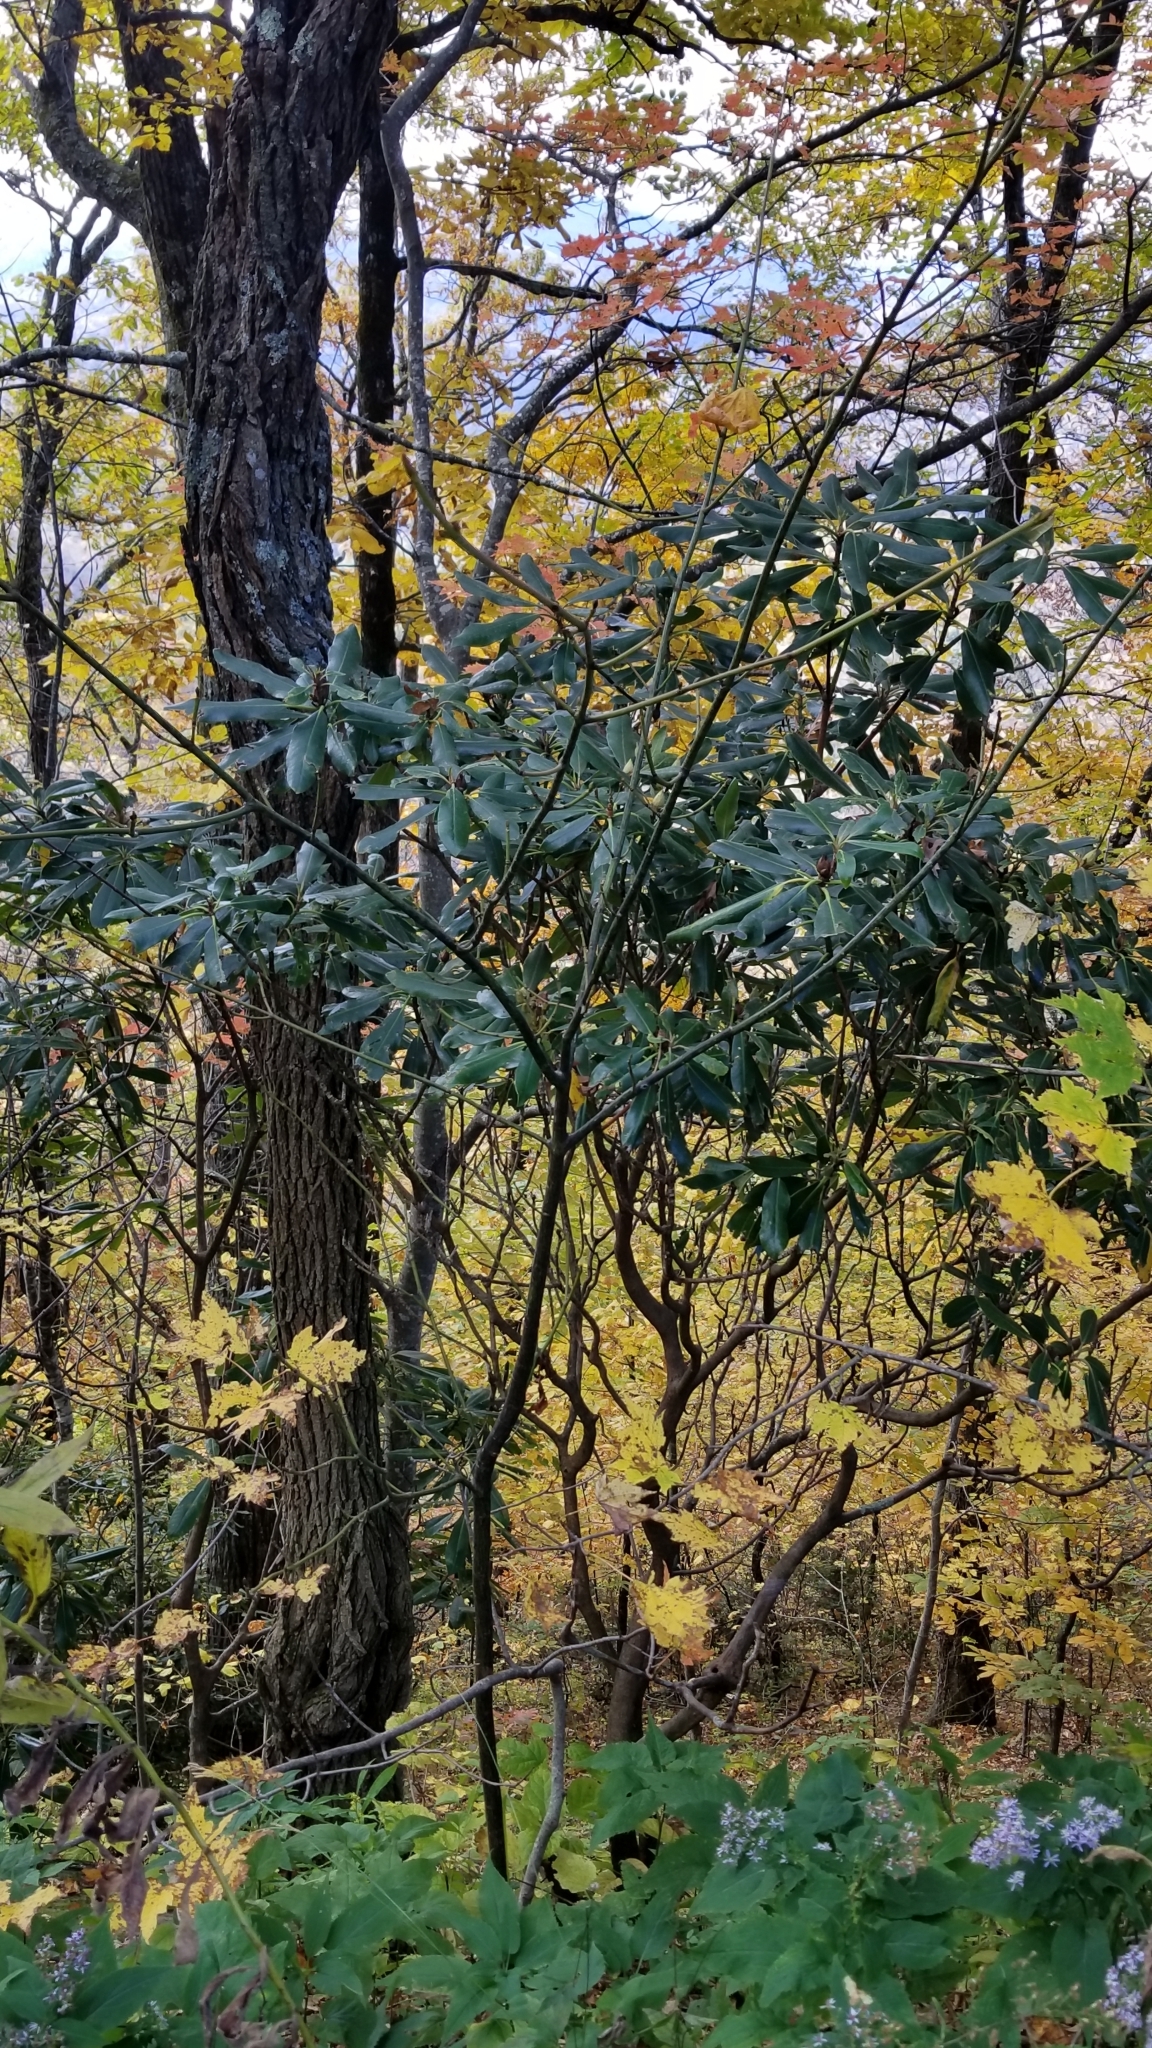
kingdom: Plantae
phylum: Tracheophyta
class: Magnoliopsida
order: Ericales
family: Ericaceae
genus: Rhododendron
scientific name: Rhododendron maximum
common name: Great rhododendron
